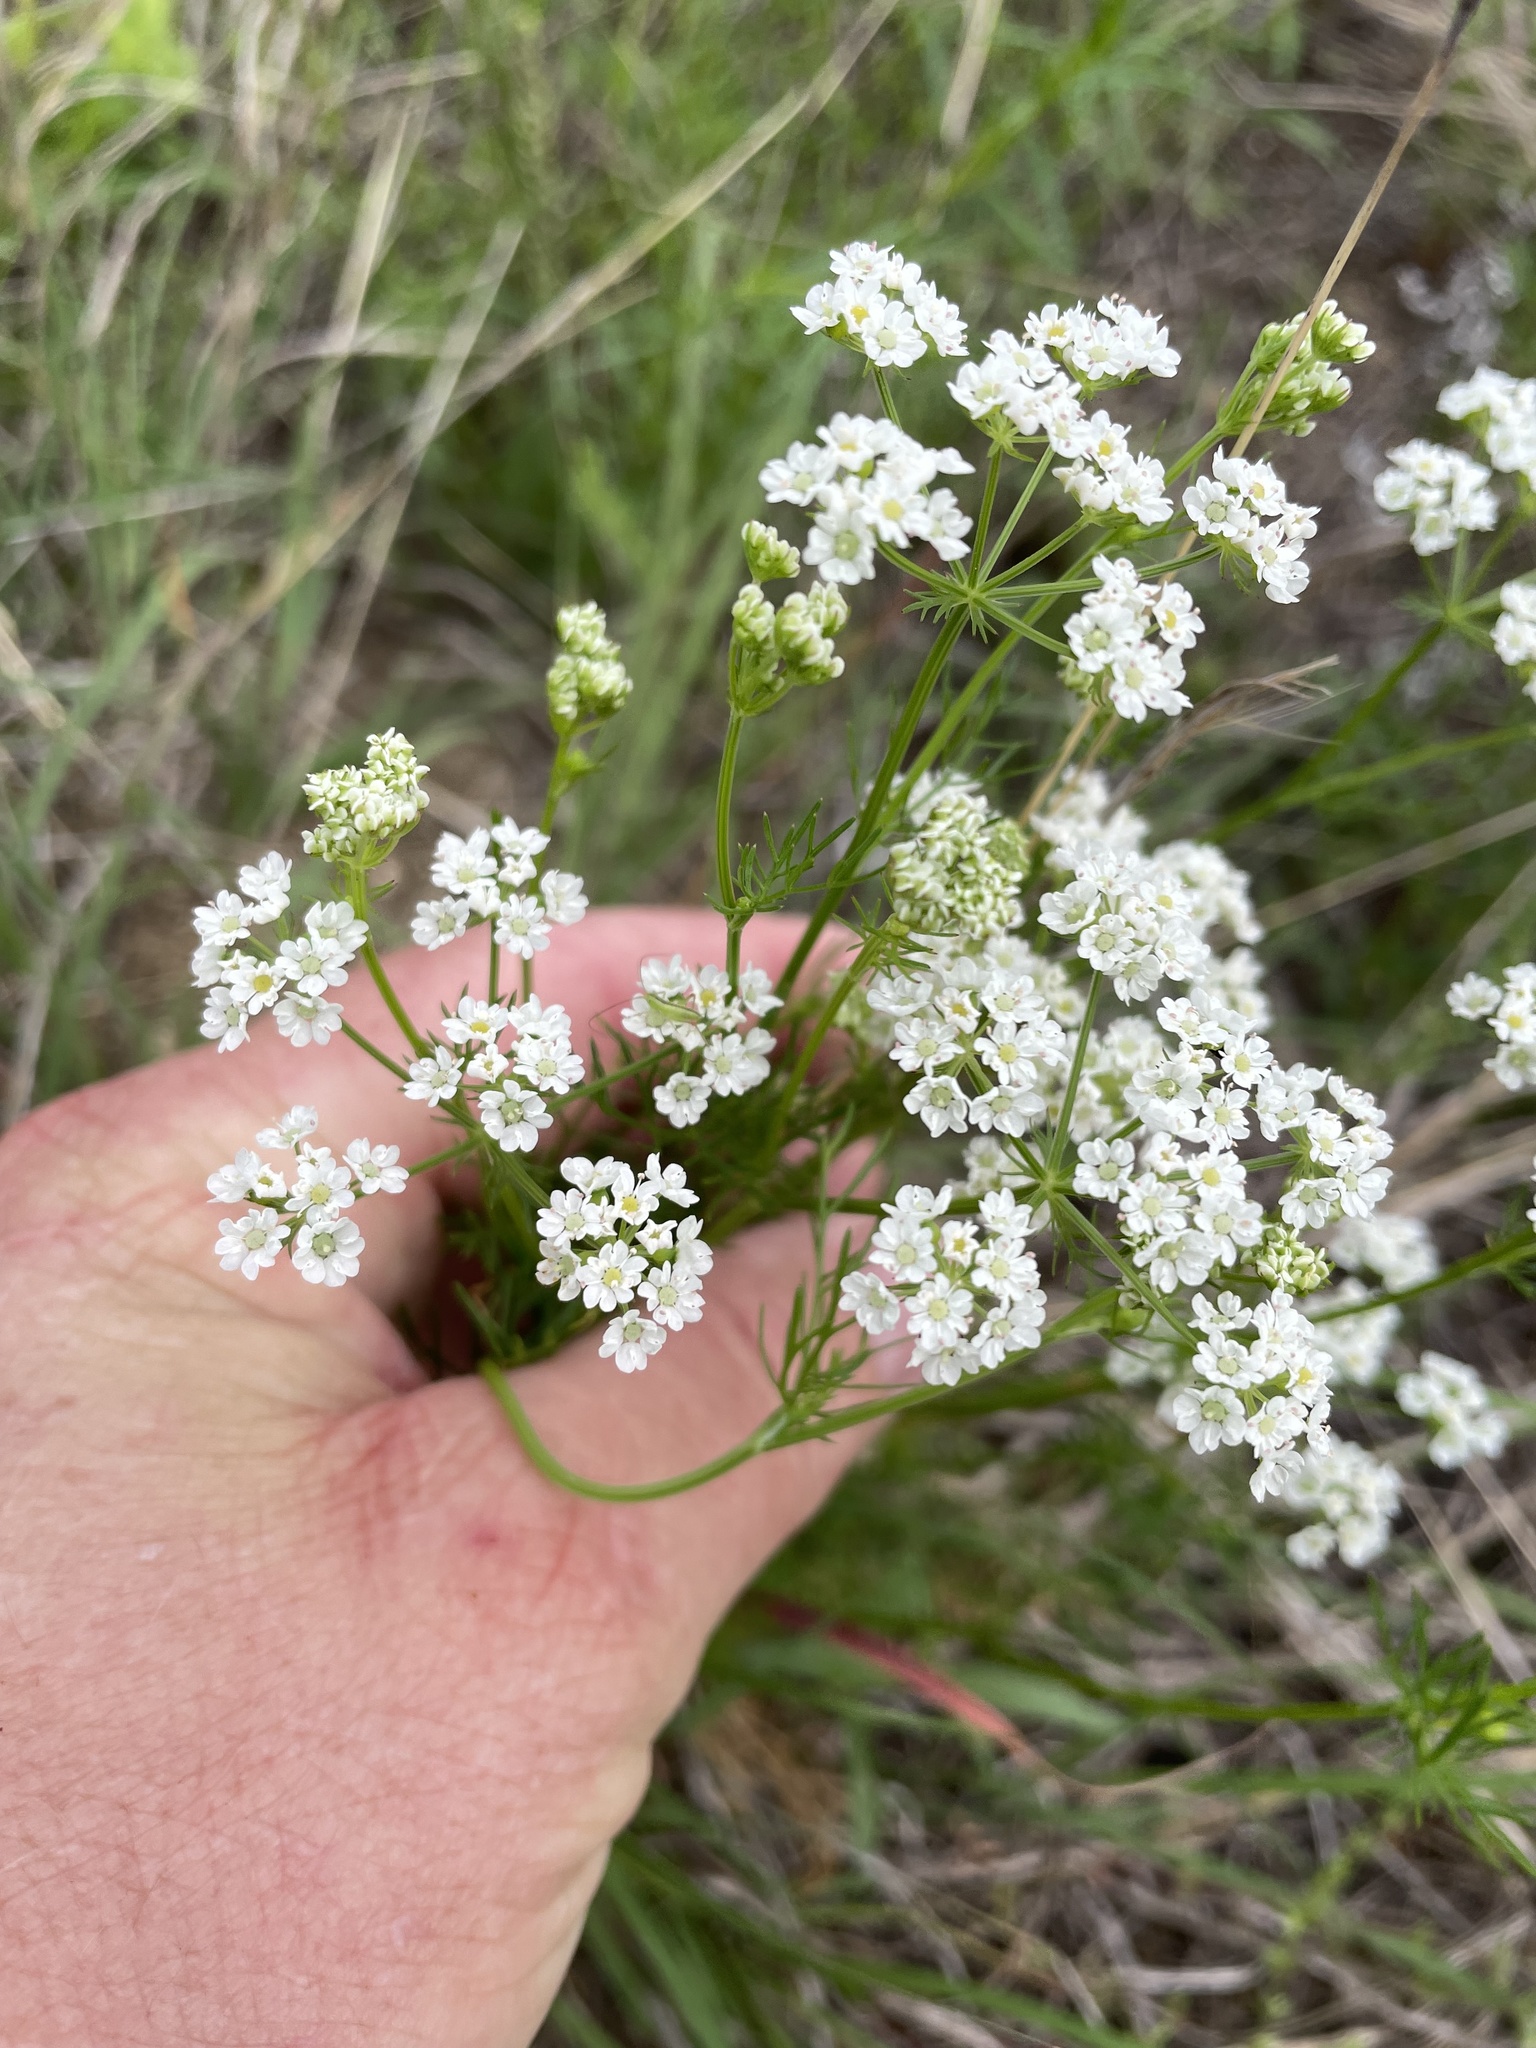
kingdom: Plantae
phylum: Tracheophyta
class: Magnoliopsida
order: Apiales
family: Apiaceae
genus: Atrema
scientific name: Atrema americanum
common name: Prairie-bishop
